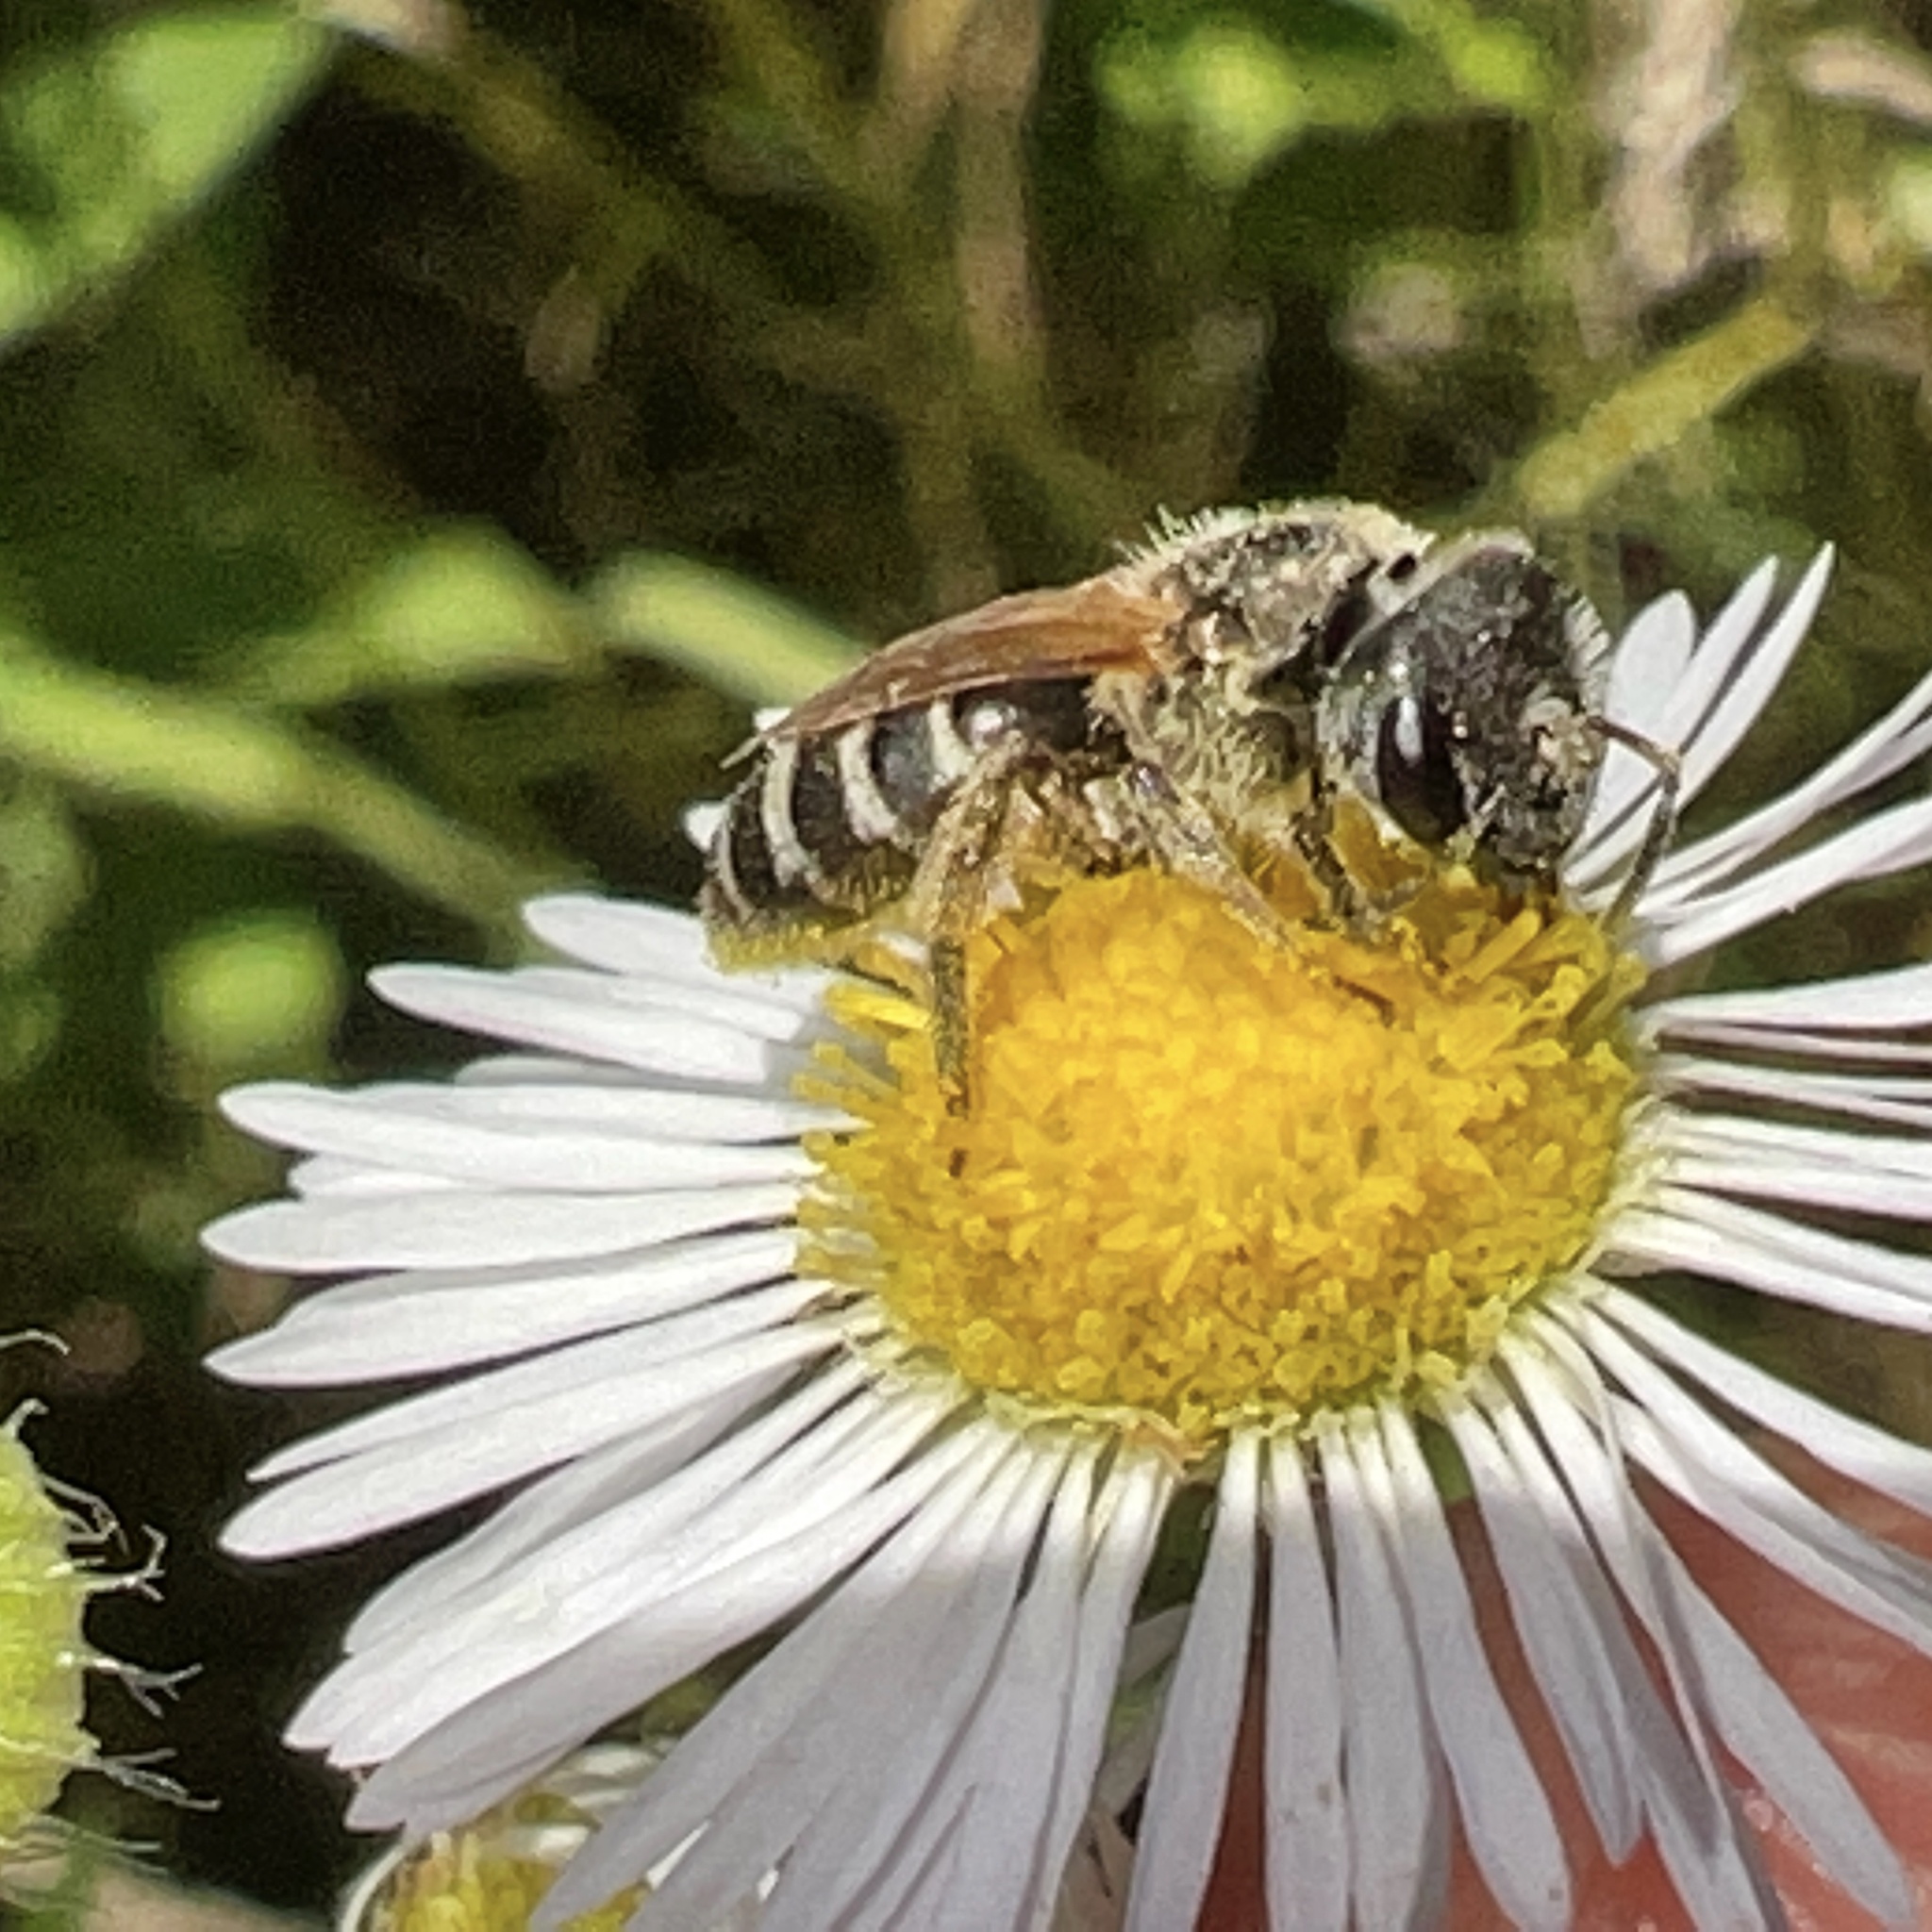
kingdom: Animalia
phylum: Arthropoda
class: Insecta
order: Hymenoptera
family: Halictidae
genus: Halictus
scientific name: Halictus ligatus
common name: Ligated furrow bee
